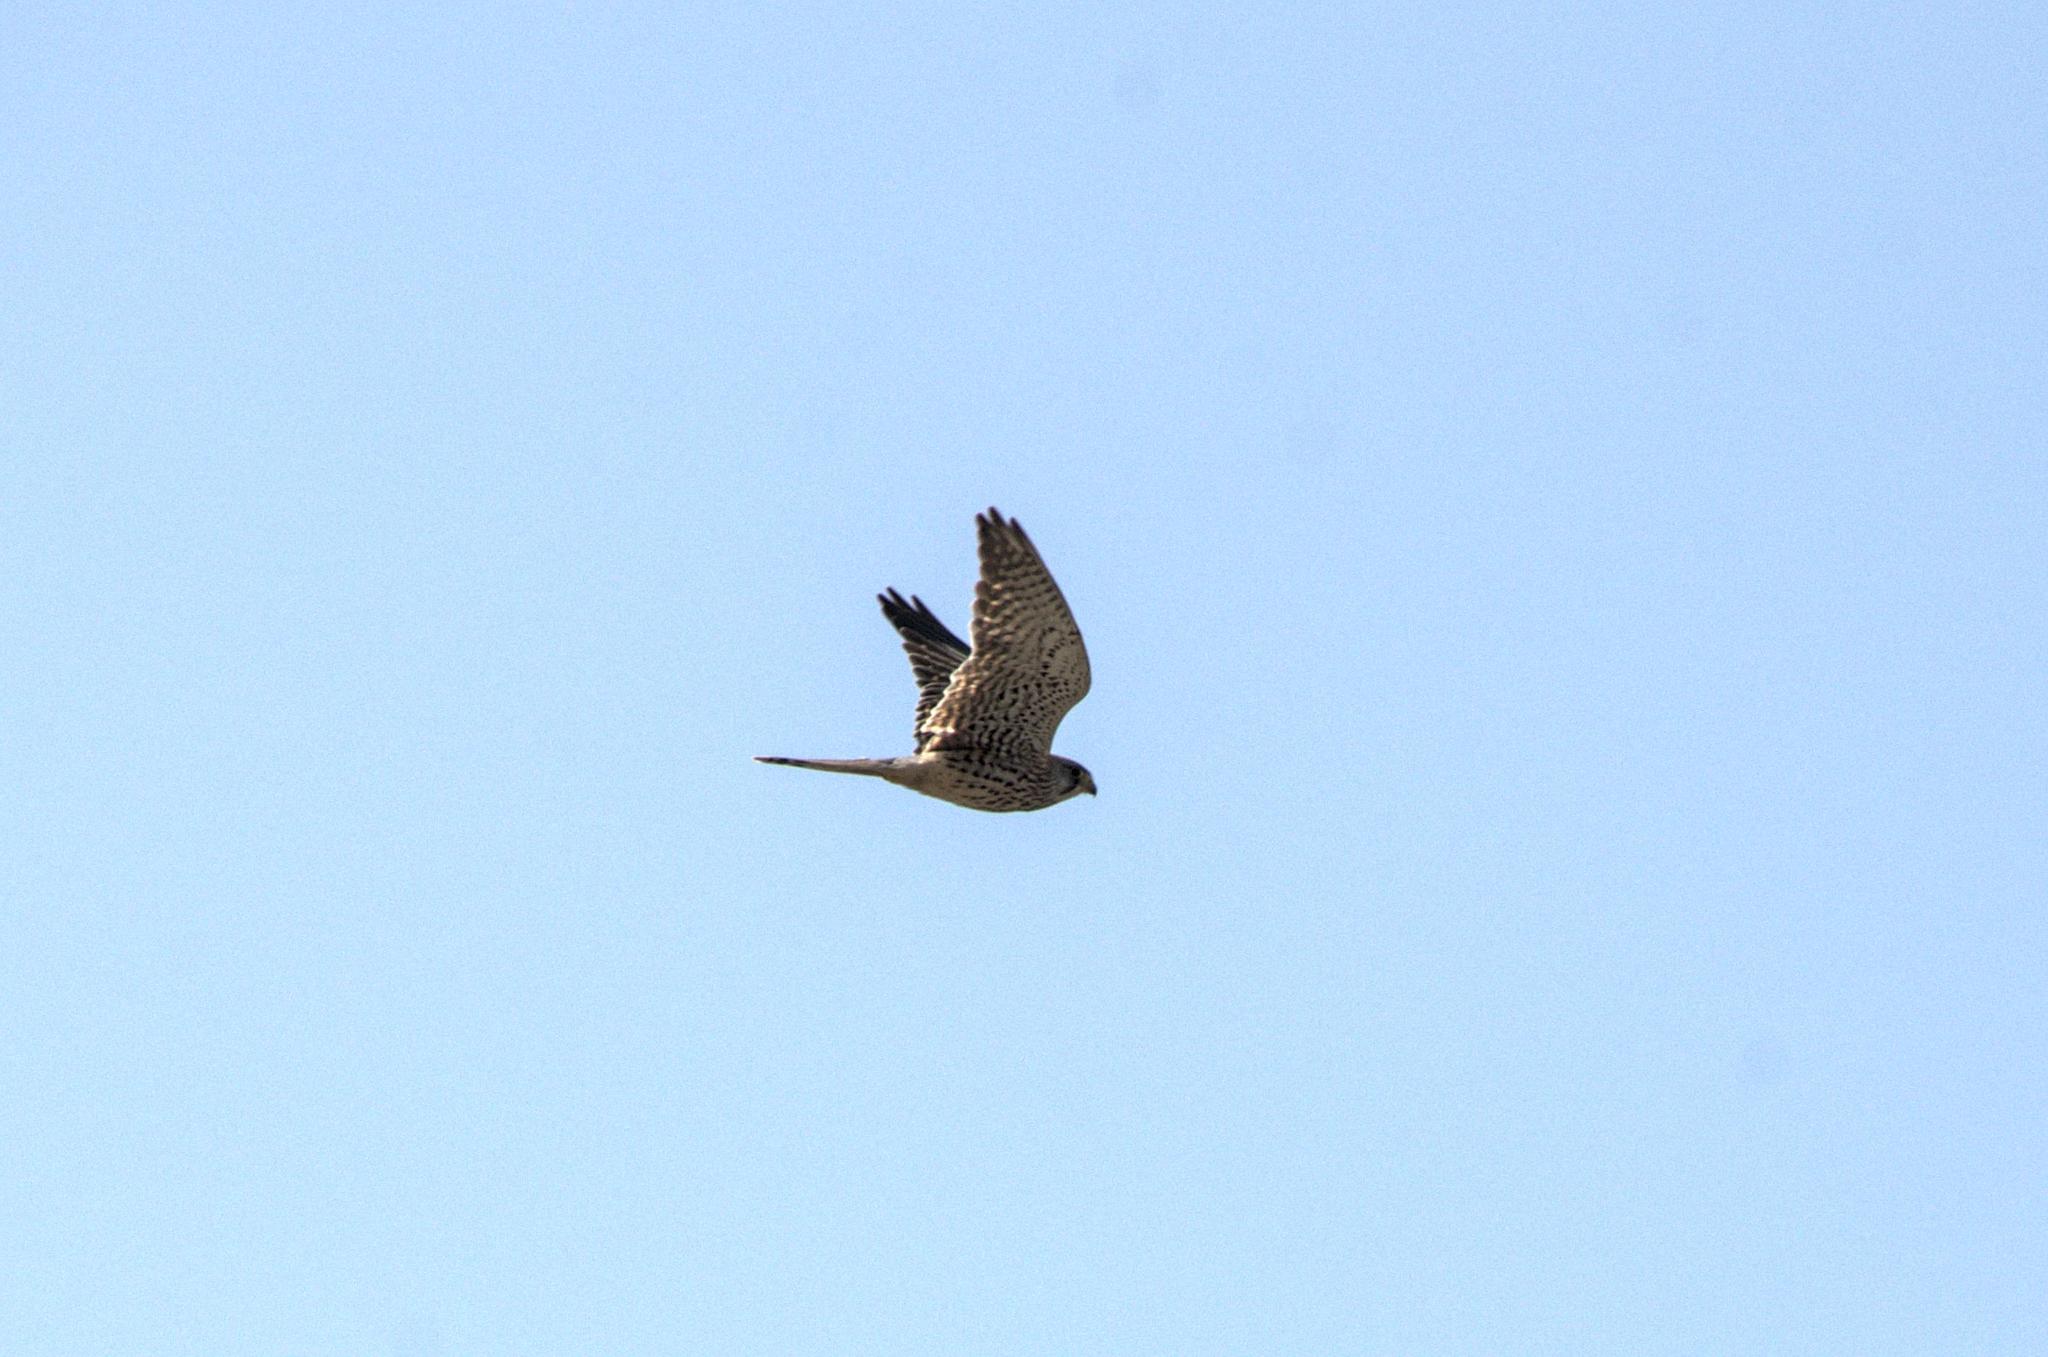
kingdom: Animalia
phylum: Chordata
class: Aves
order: Falconiformes
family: Falconidae
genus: Falco
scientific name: Falco tinnunculus
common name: Common kestrel
